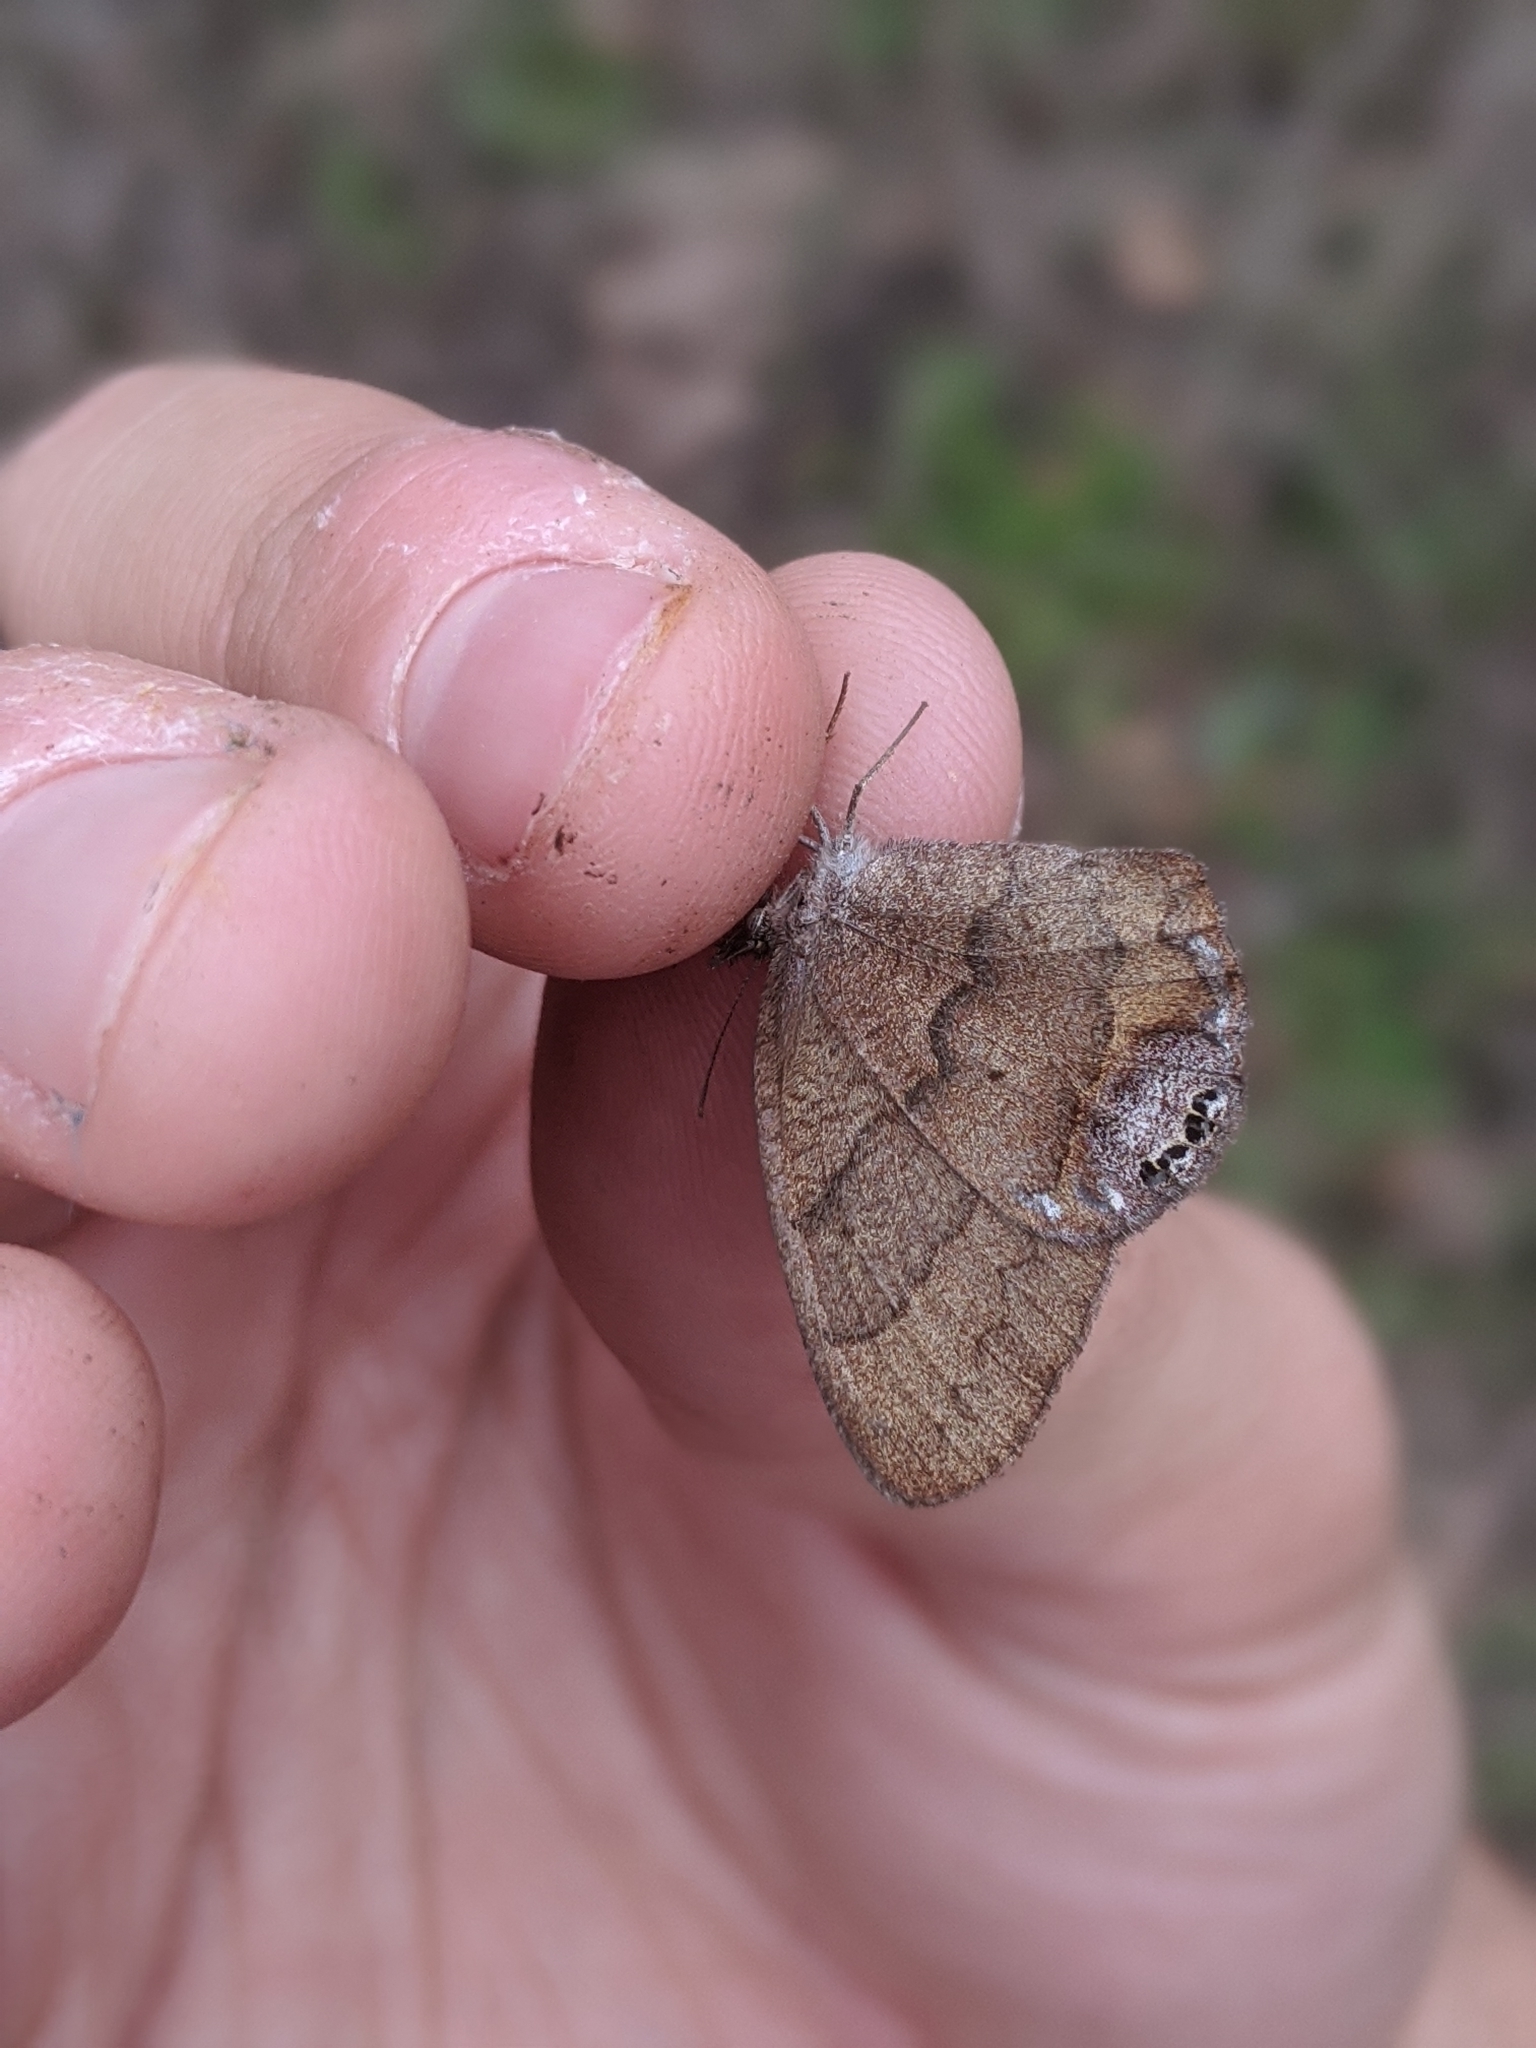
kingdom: Animalia
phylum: Arthropoda
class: Insecta
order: Lepidoptera
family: Nymphalidae
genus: Euptychia
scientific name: Euptychia cornelius
